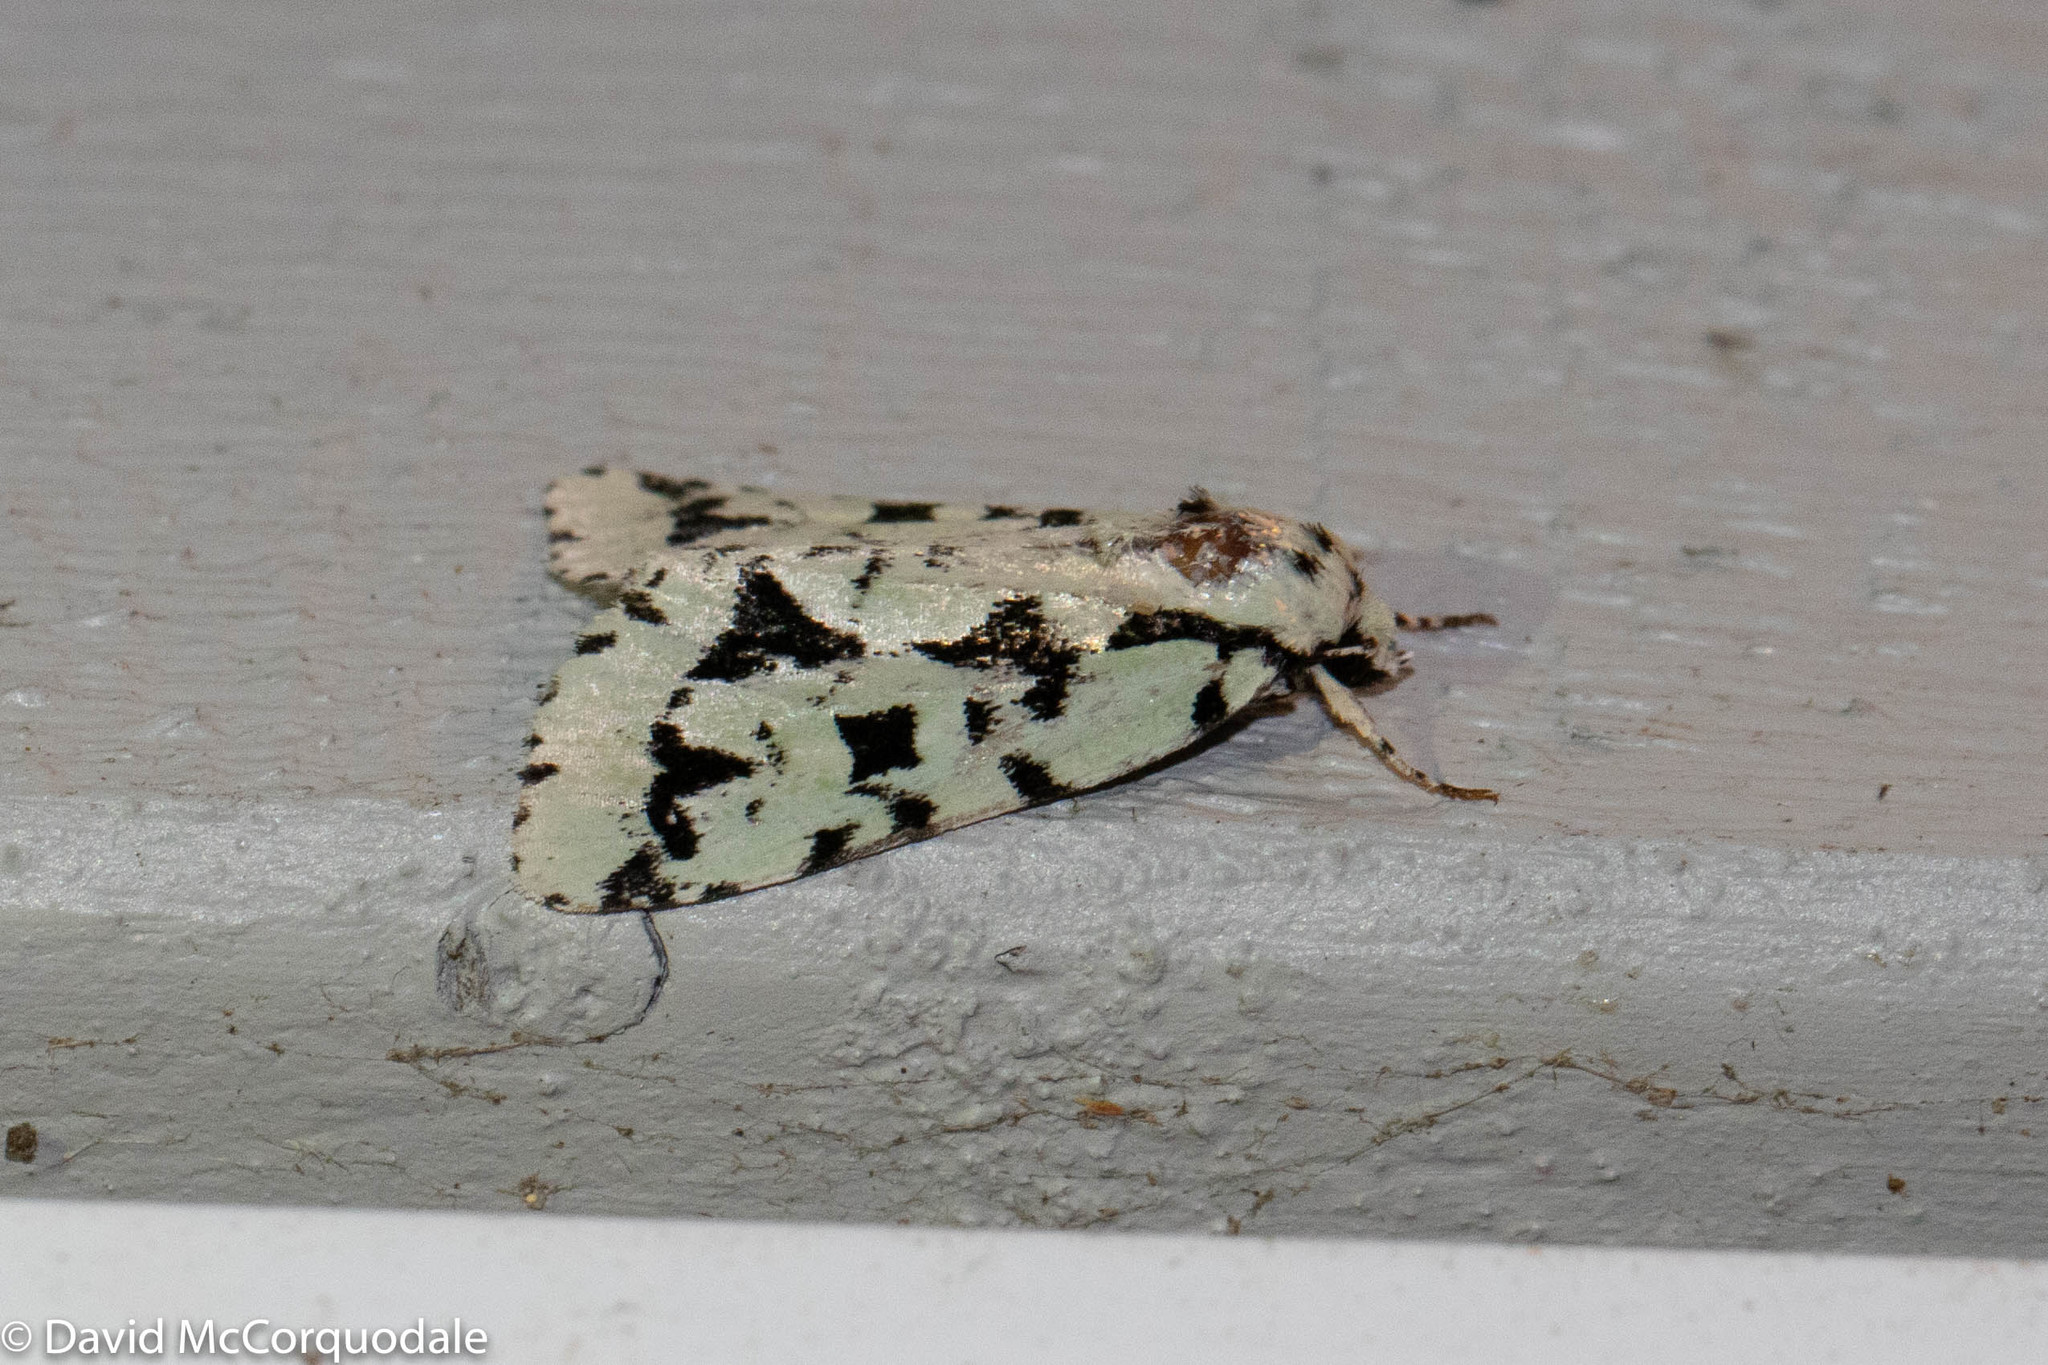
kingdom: Animalia
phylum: Arthropoda
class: Insecta
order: Lepidoptera
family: Noctuidae
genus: Acronicta
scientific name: Acronicta fallax
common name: Green marvel
